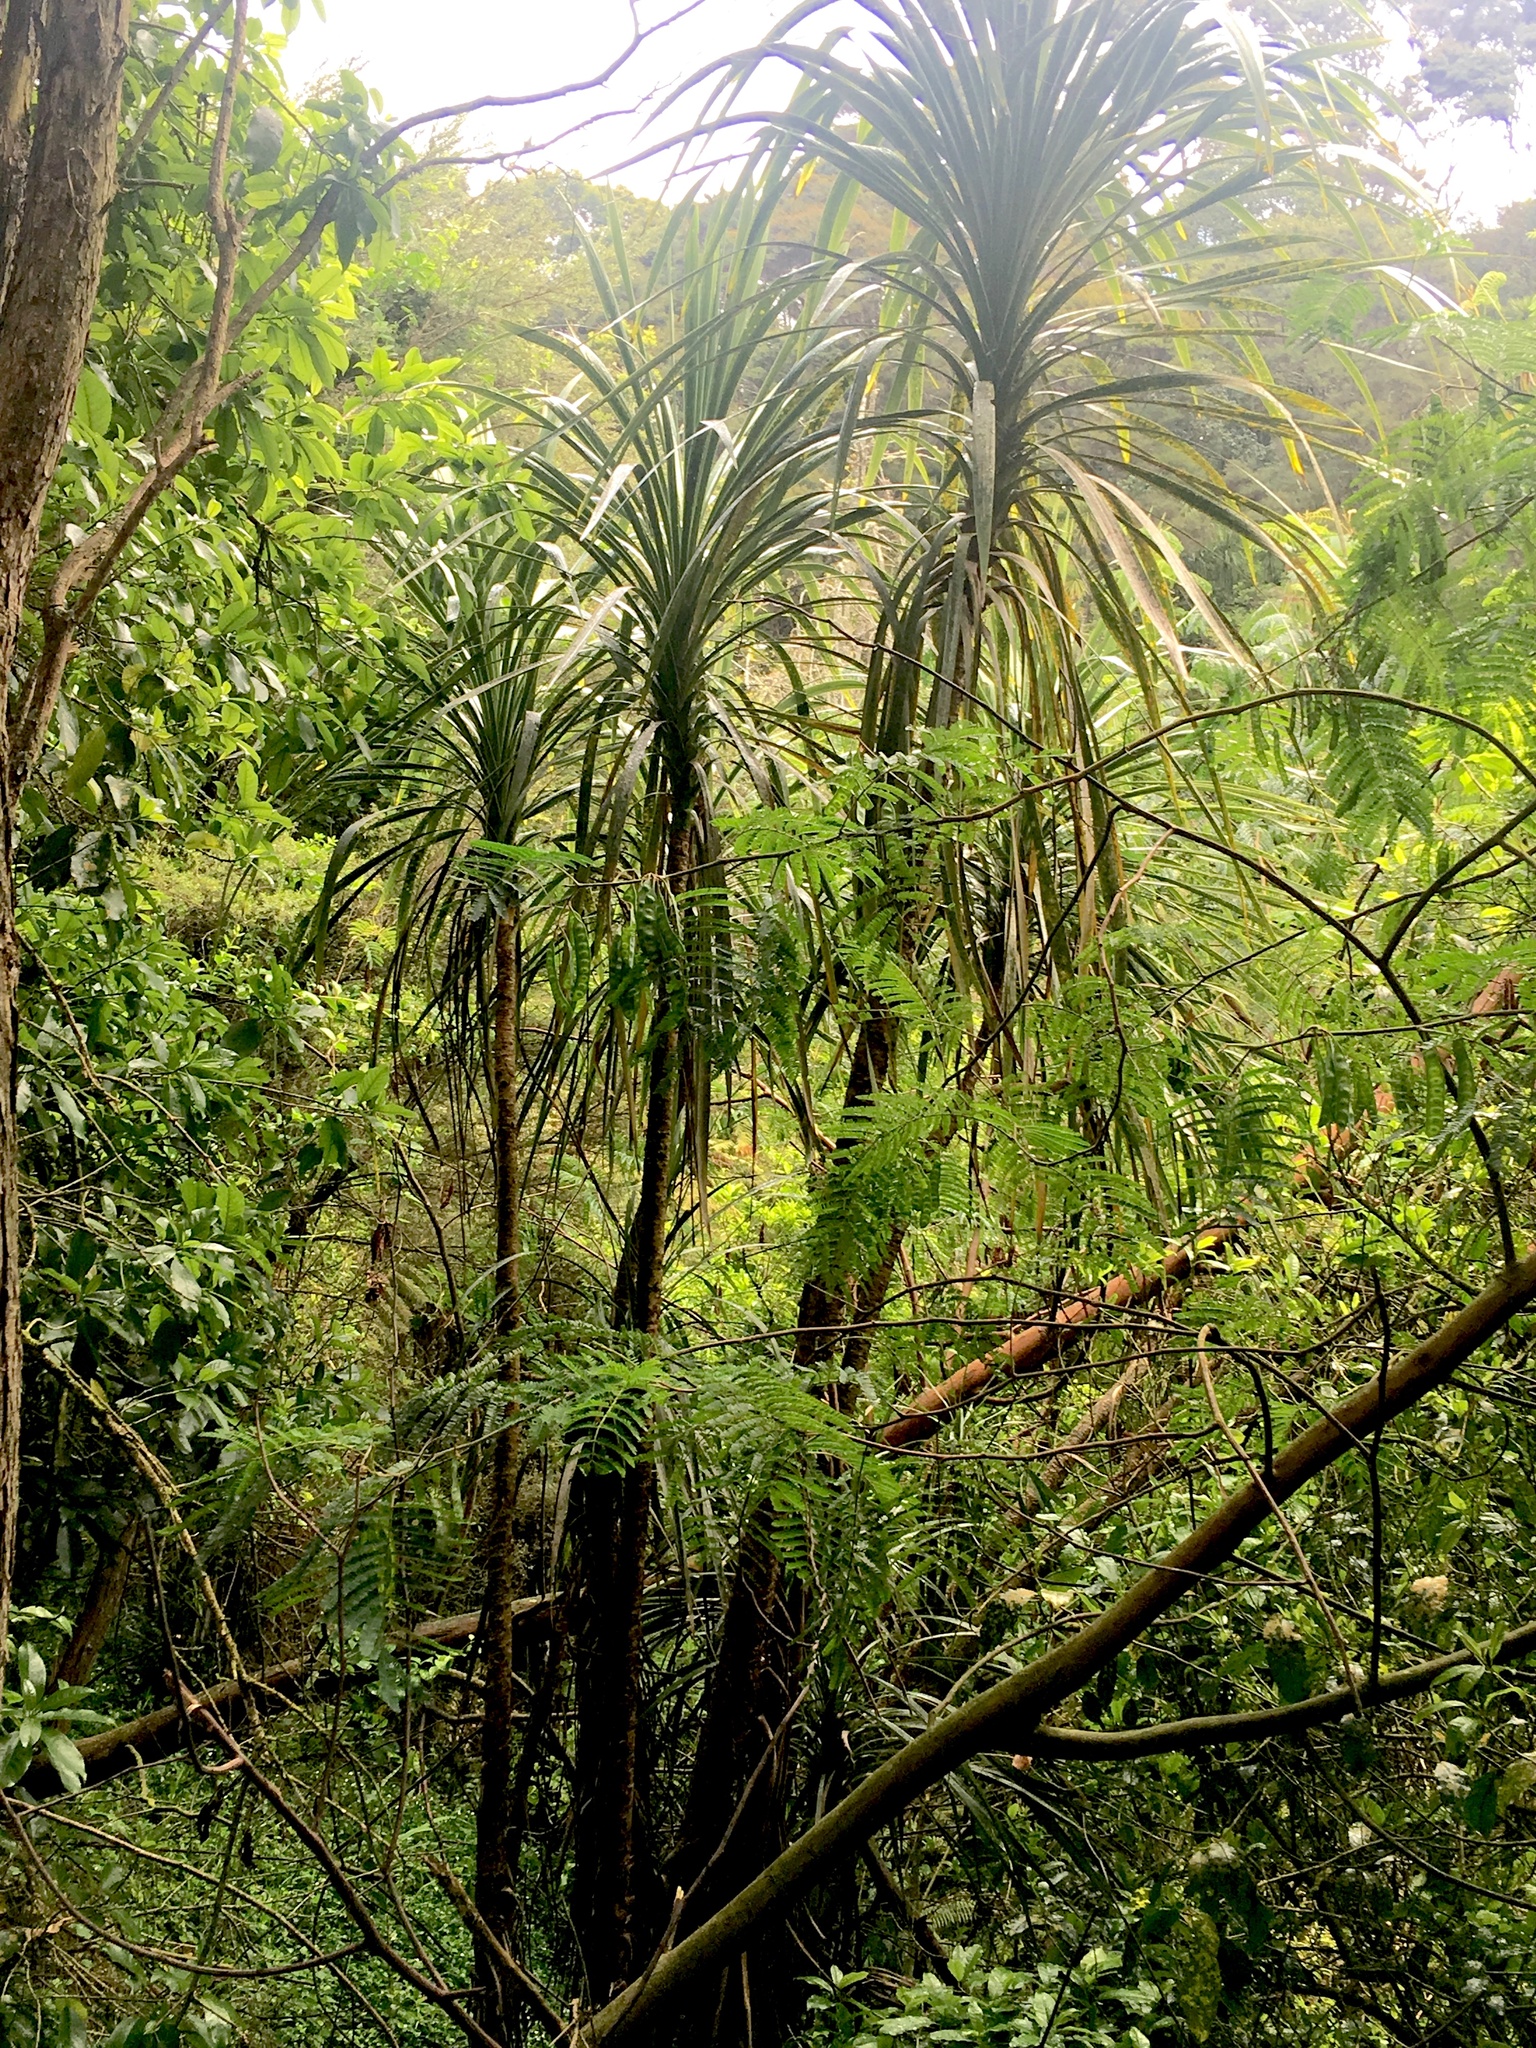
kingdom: Plantae
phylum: Tracheophyta
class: Liliopsida
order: Asparagales
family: Asparagaceae
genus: Cordyline
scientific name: Cordyline australis
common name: Cabbage-palm
